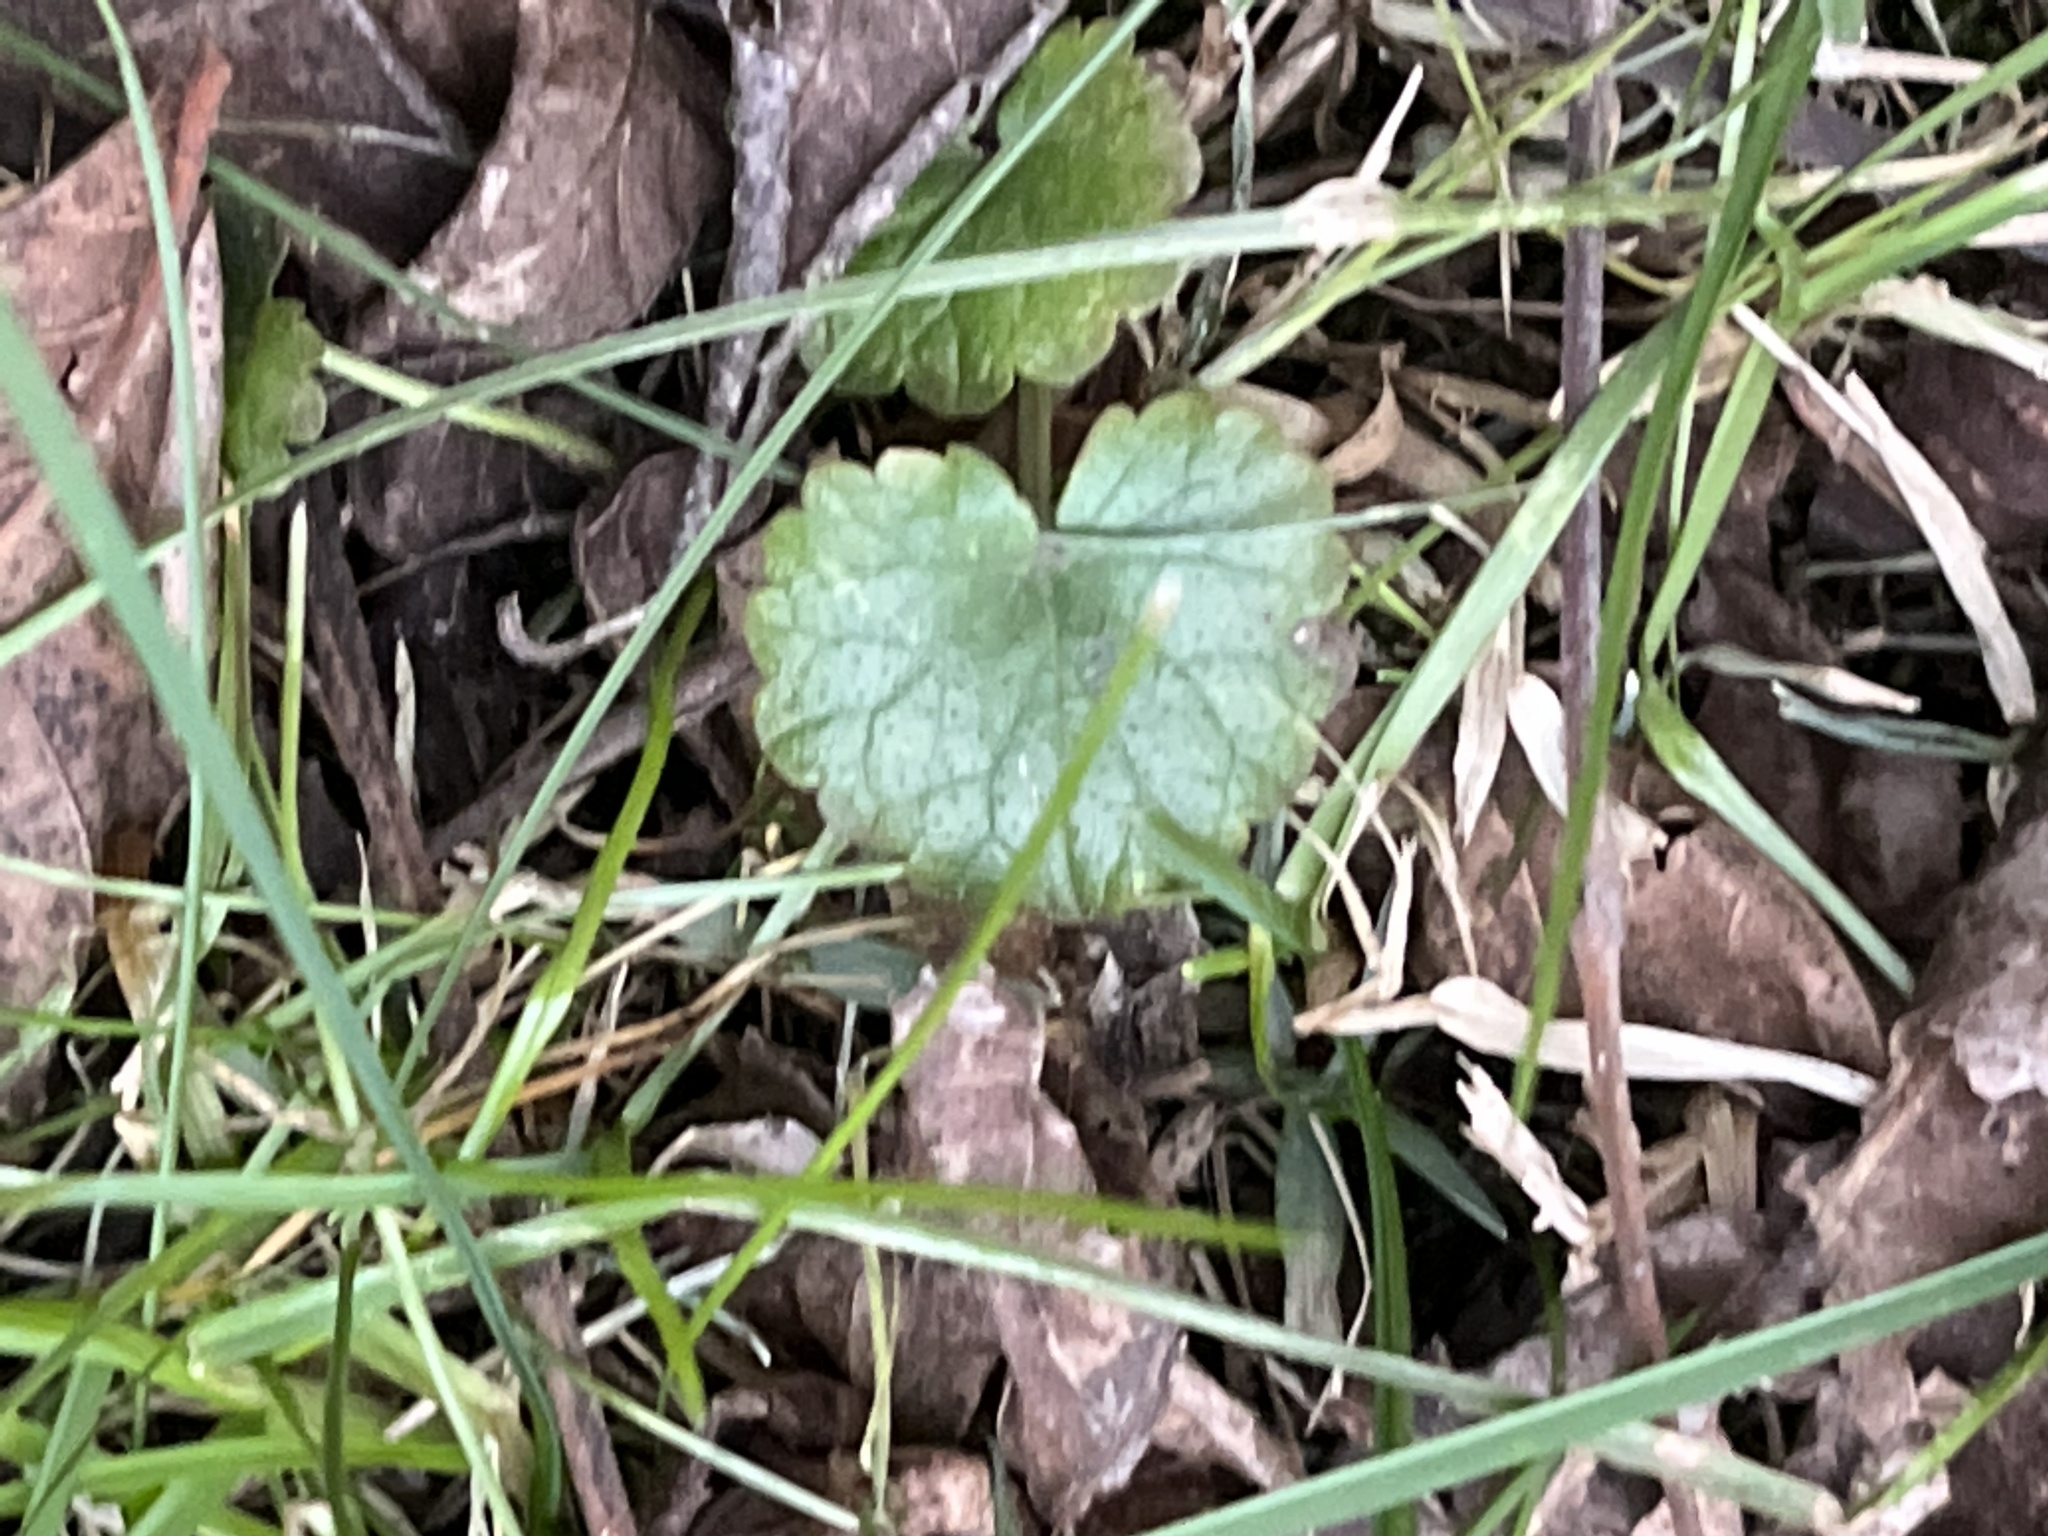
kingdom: Plantae
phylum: Tracheophyta
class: Magnoliopsida
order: Lamiales
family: Lamiaceae
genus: Glechoma
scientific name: Glechoma hederacea
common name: Ground ivy
